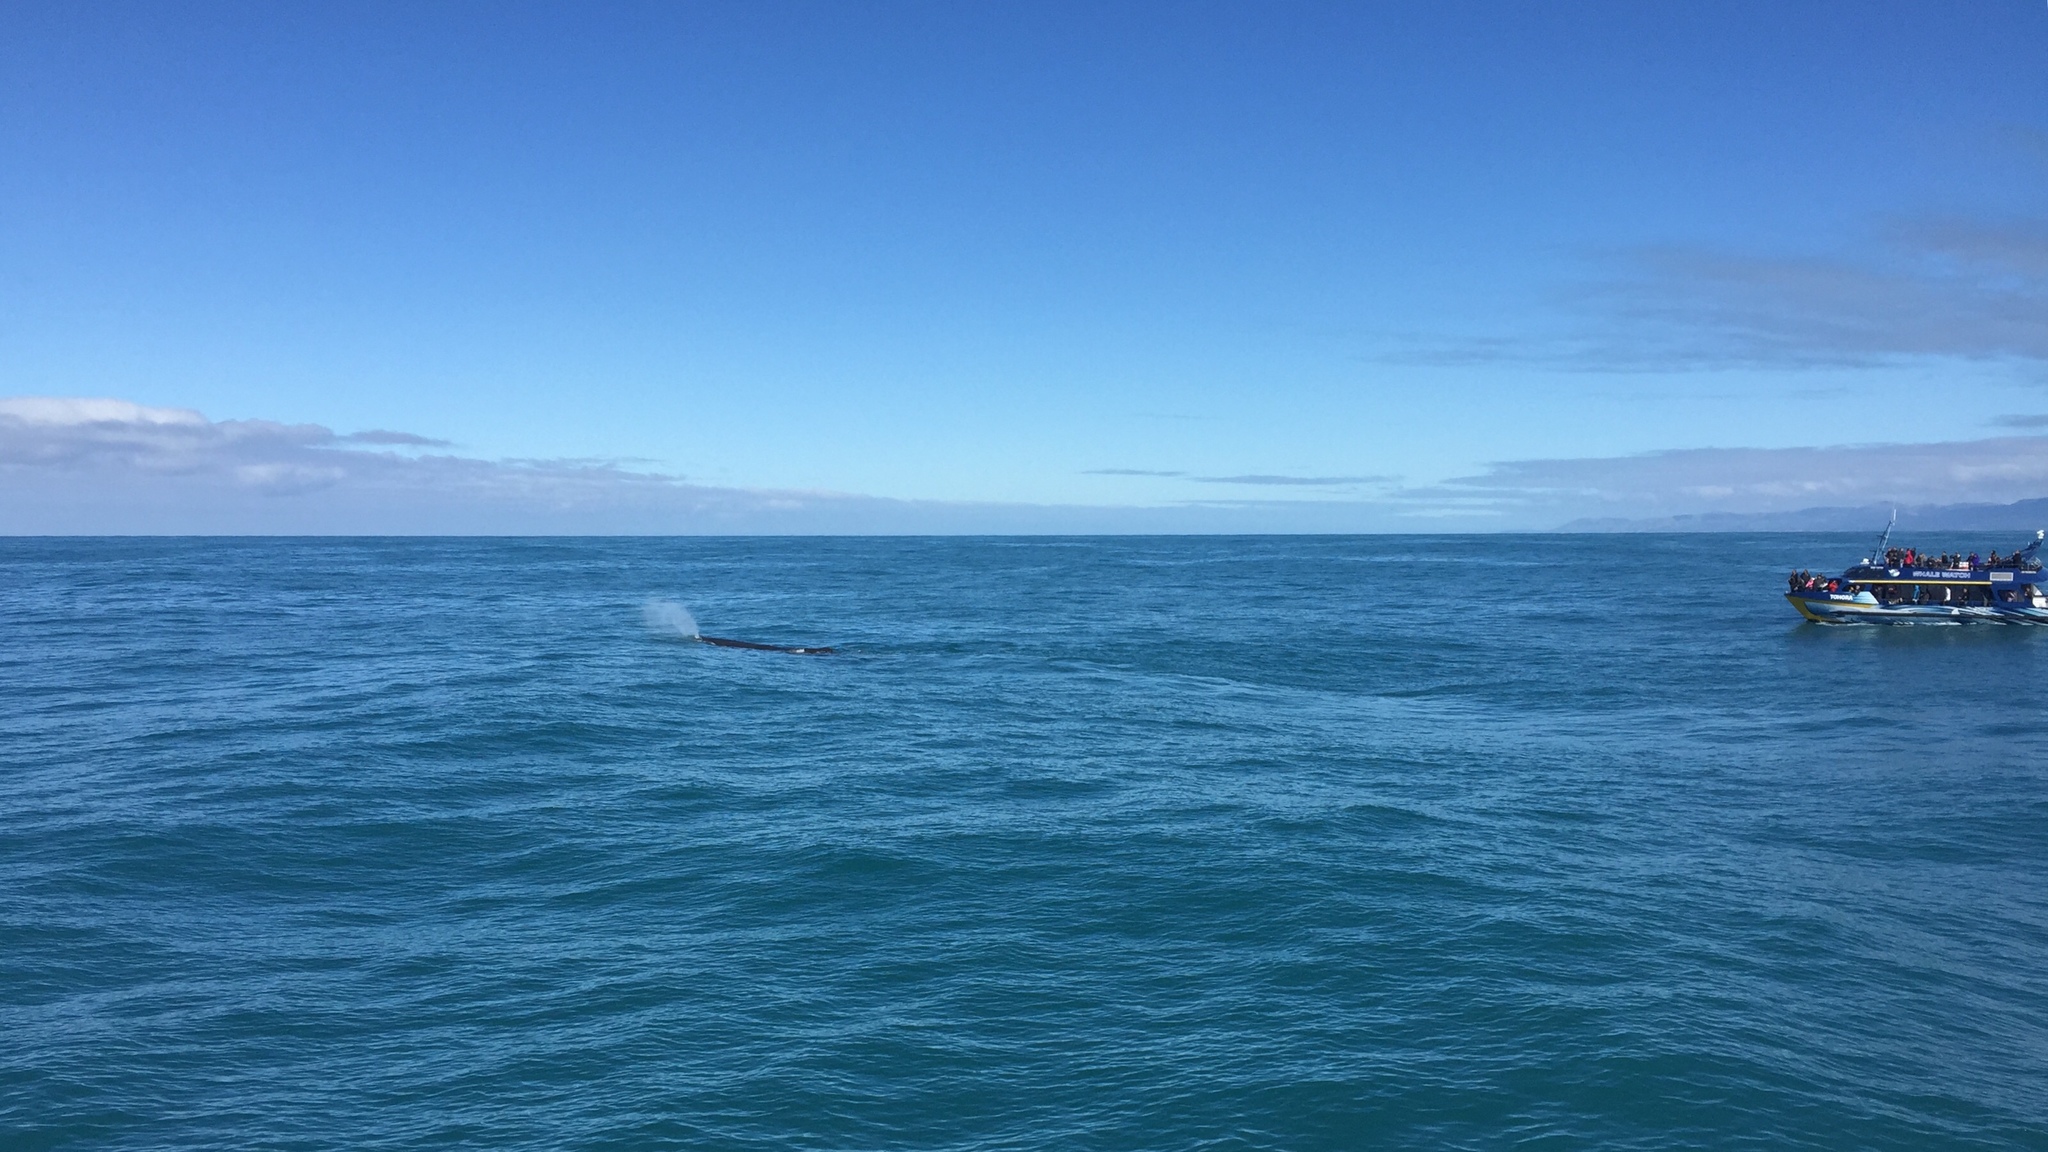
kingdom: Animalia
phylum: Chordata
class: Mammalia
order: Cetacea
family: Physeteridae
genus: Physeter
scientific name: Physeter macrocephalus
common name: Sperm whale
